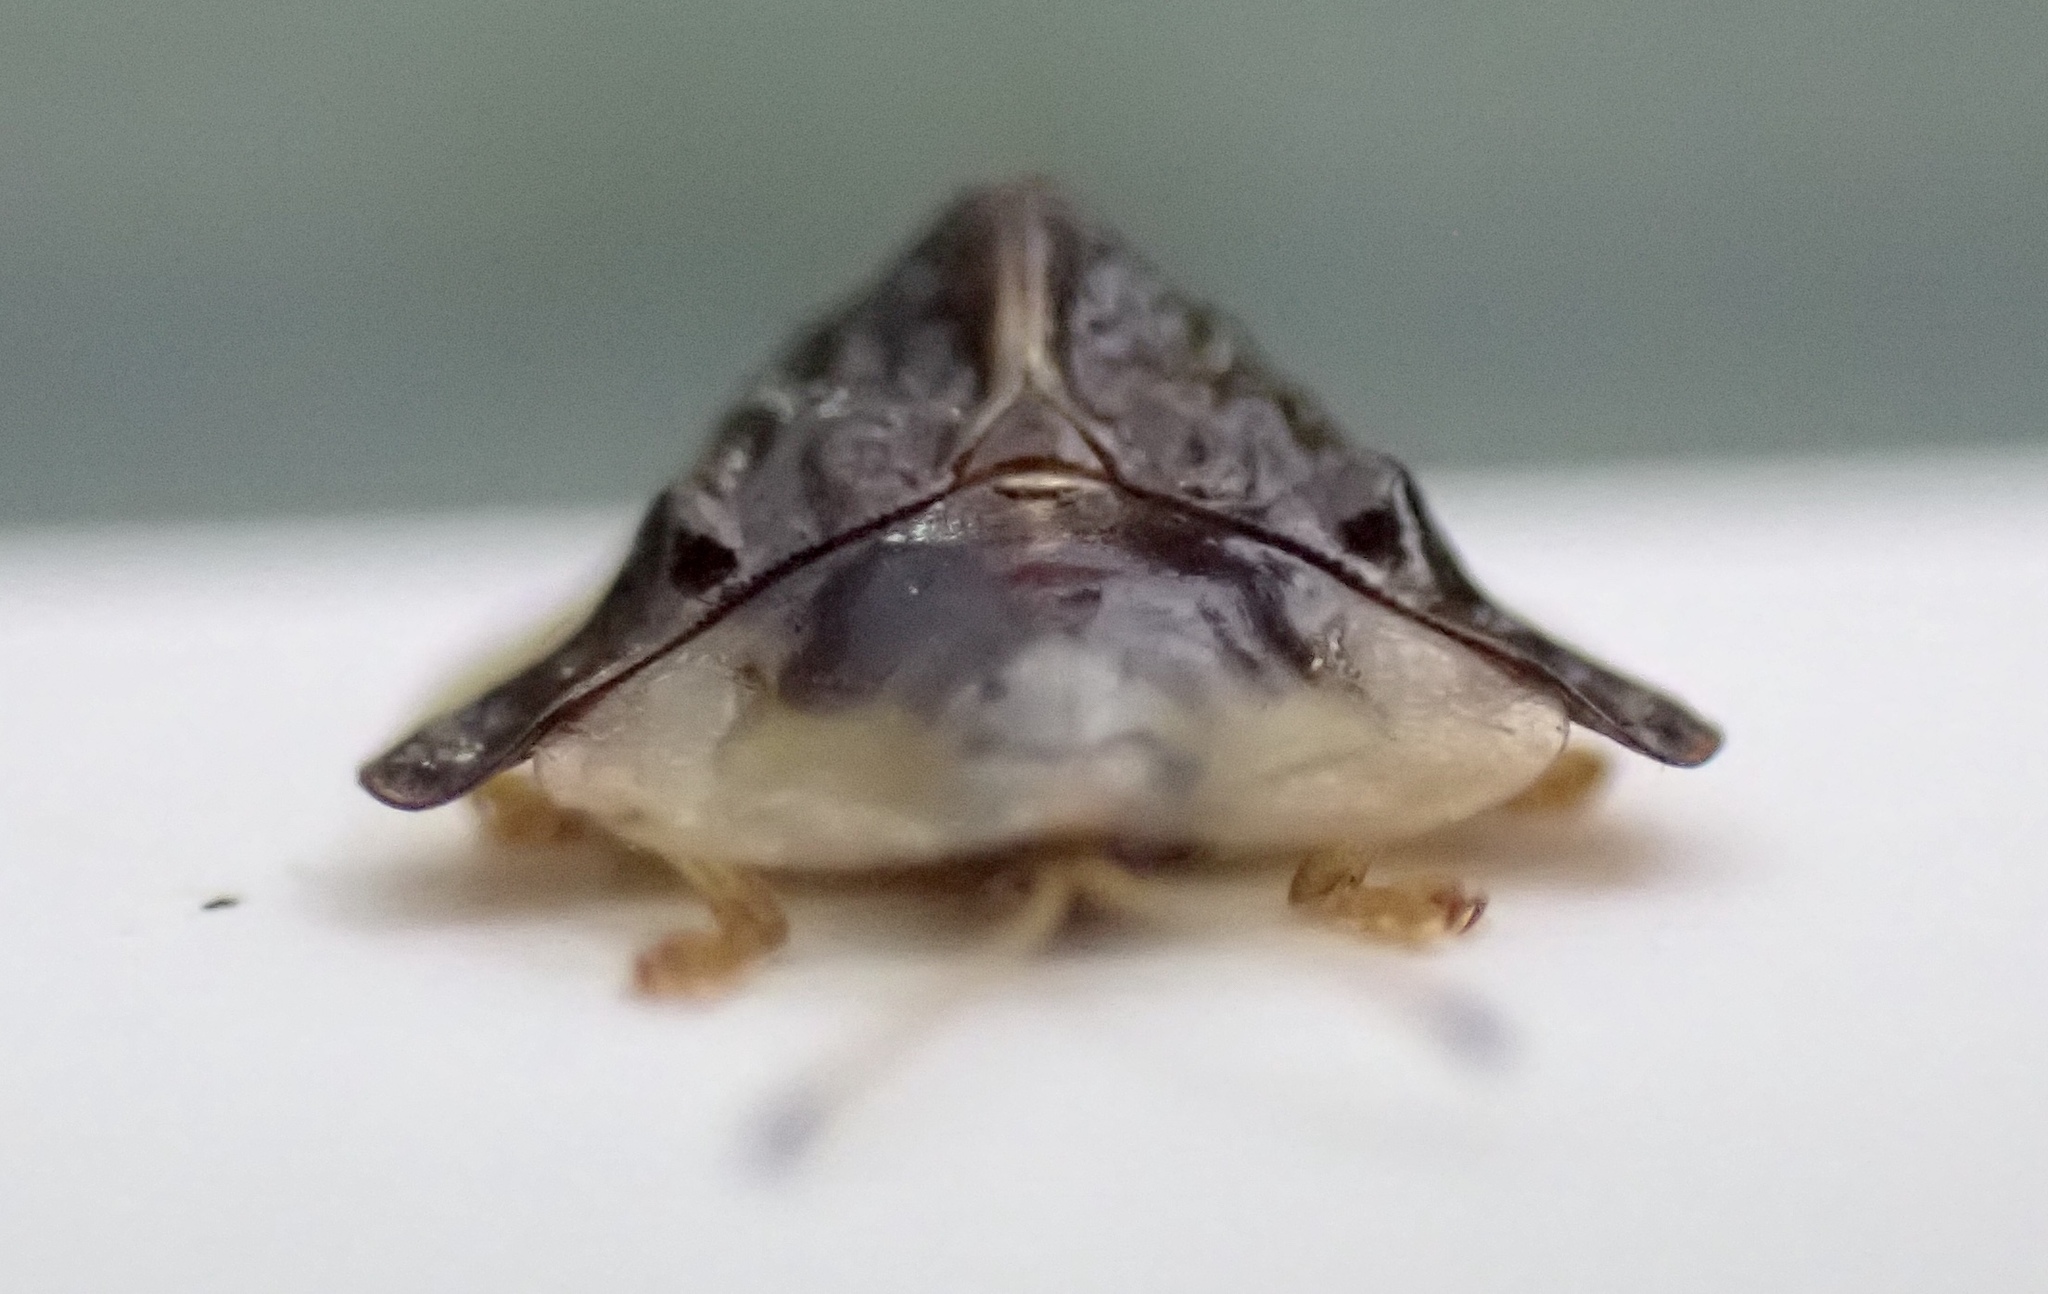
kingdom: Animalia
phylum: Arthropoda
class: Insecta
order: Coleoptera
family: Chrysomelidae
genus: Helocassis
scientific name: Helocassis clavata
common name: Clavate tortoise beetle
